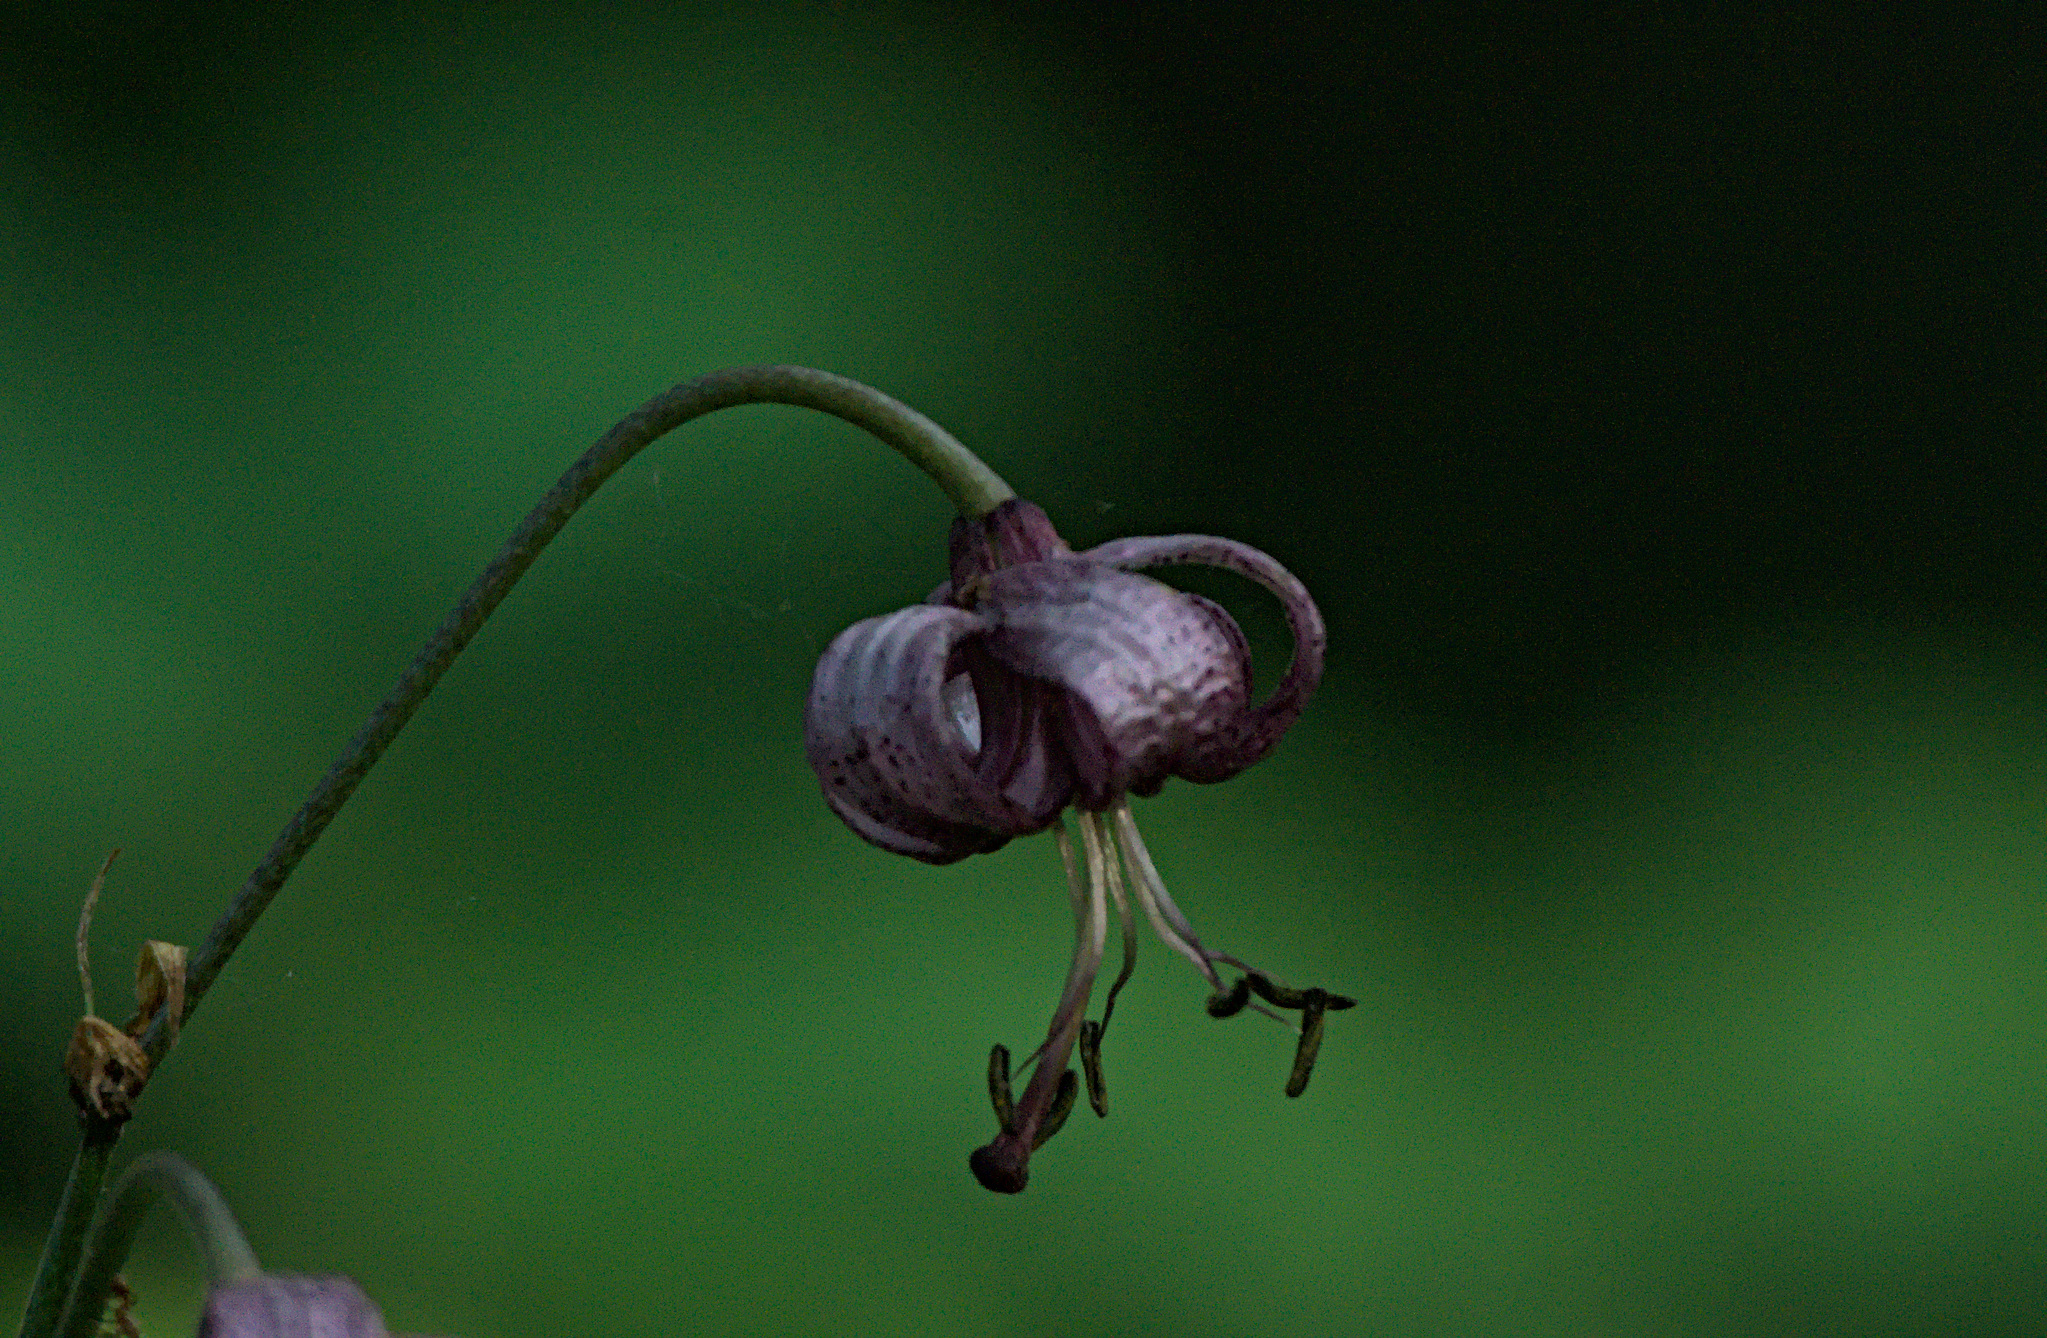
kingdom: Plantae
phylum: Tracheophyta
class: Liliopsida
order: Liliales
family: Liliaceae
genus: Lilium
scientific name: Lilium martagon
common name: Martagon lily
